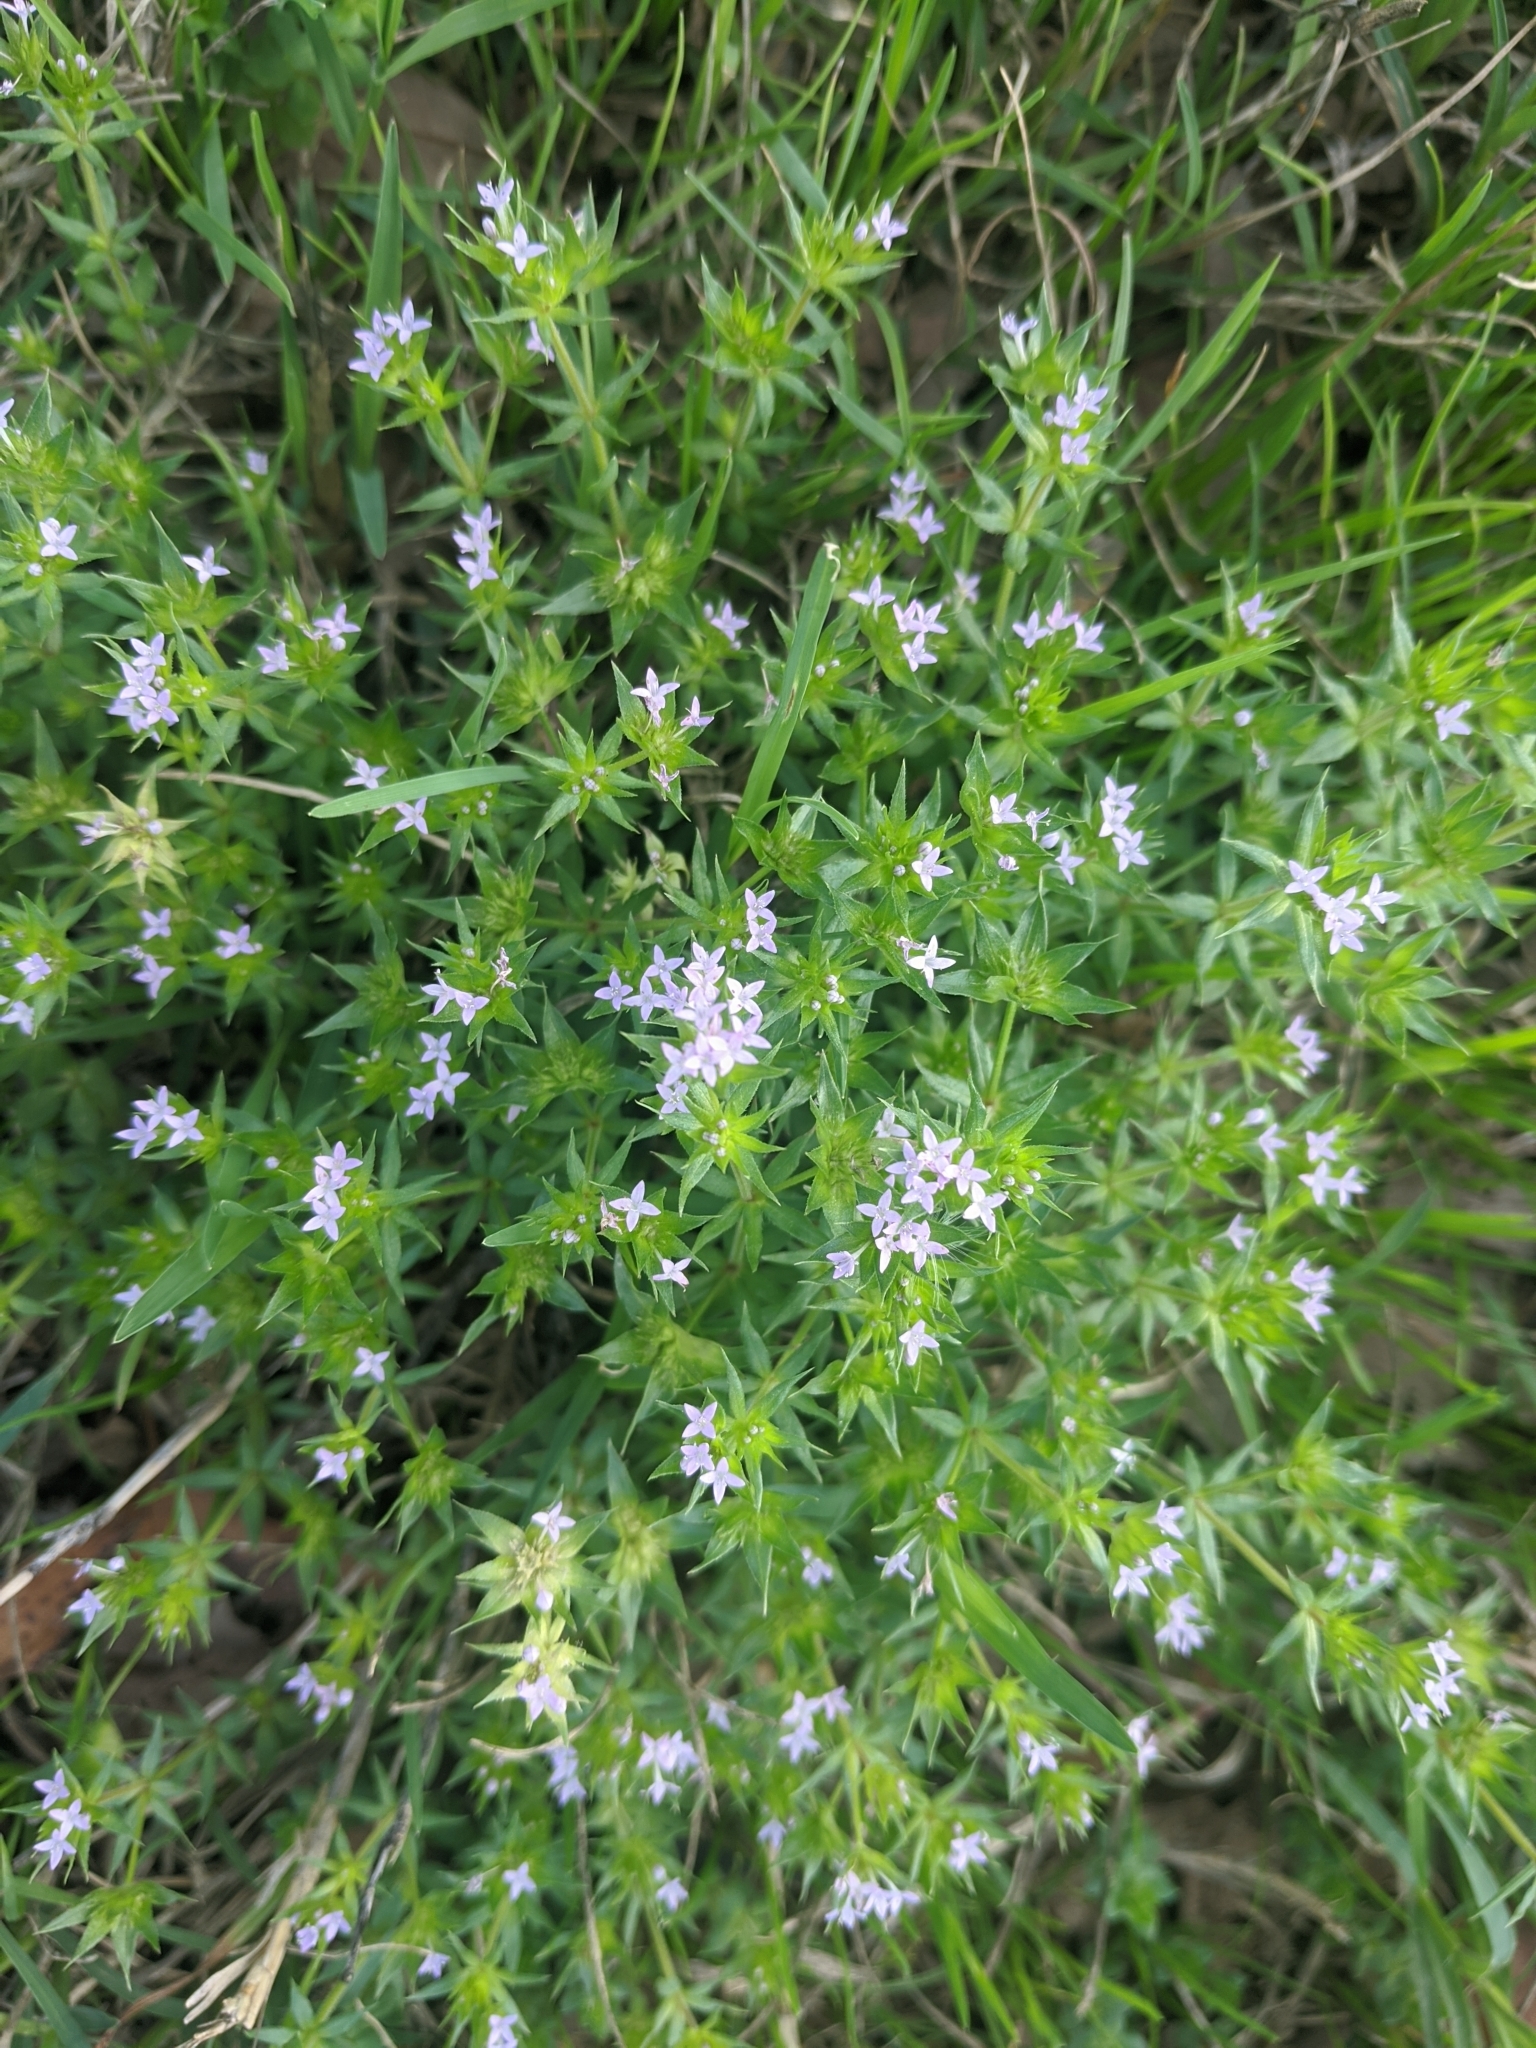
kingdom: Plantae
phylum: Tracheophyta
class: Magnoliopsida
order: Gentianales
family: Rubiaceae
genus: Sherardia
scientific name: Sherardia arvensis
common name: Field madder
